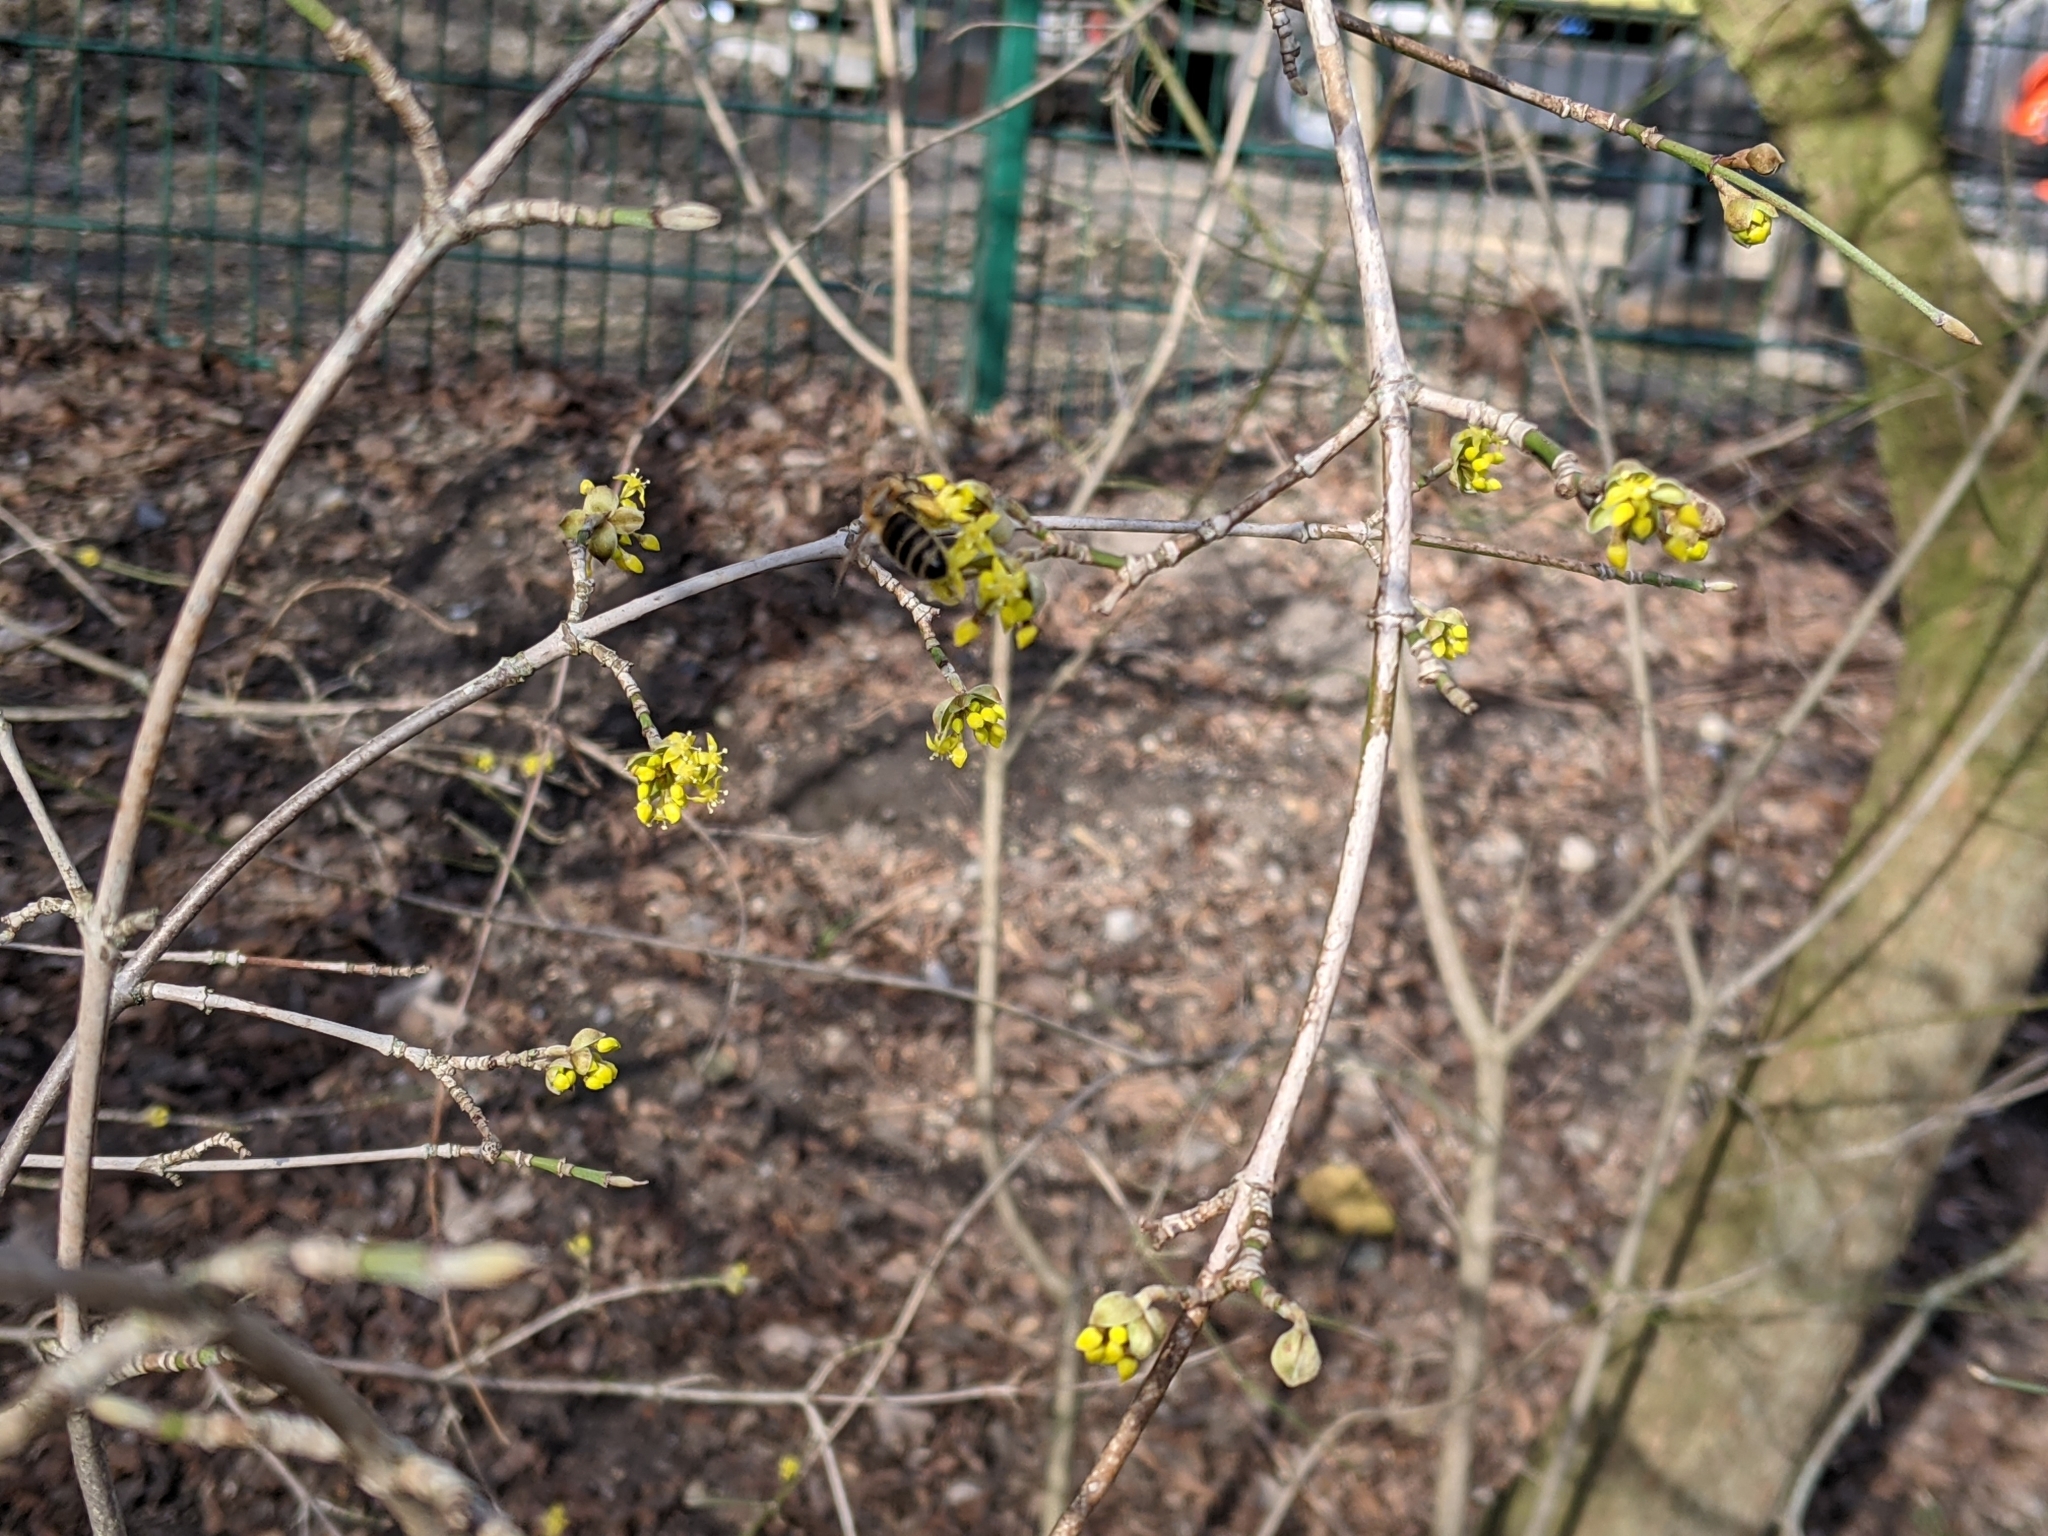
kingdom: Animalia
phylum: Arthropoda
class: Insecta
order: Hymenoptera
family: Apidae
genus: Apis
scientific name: Apis mellifera
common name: Honey bee
